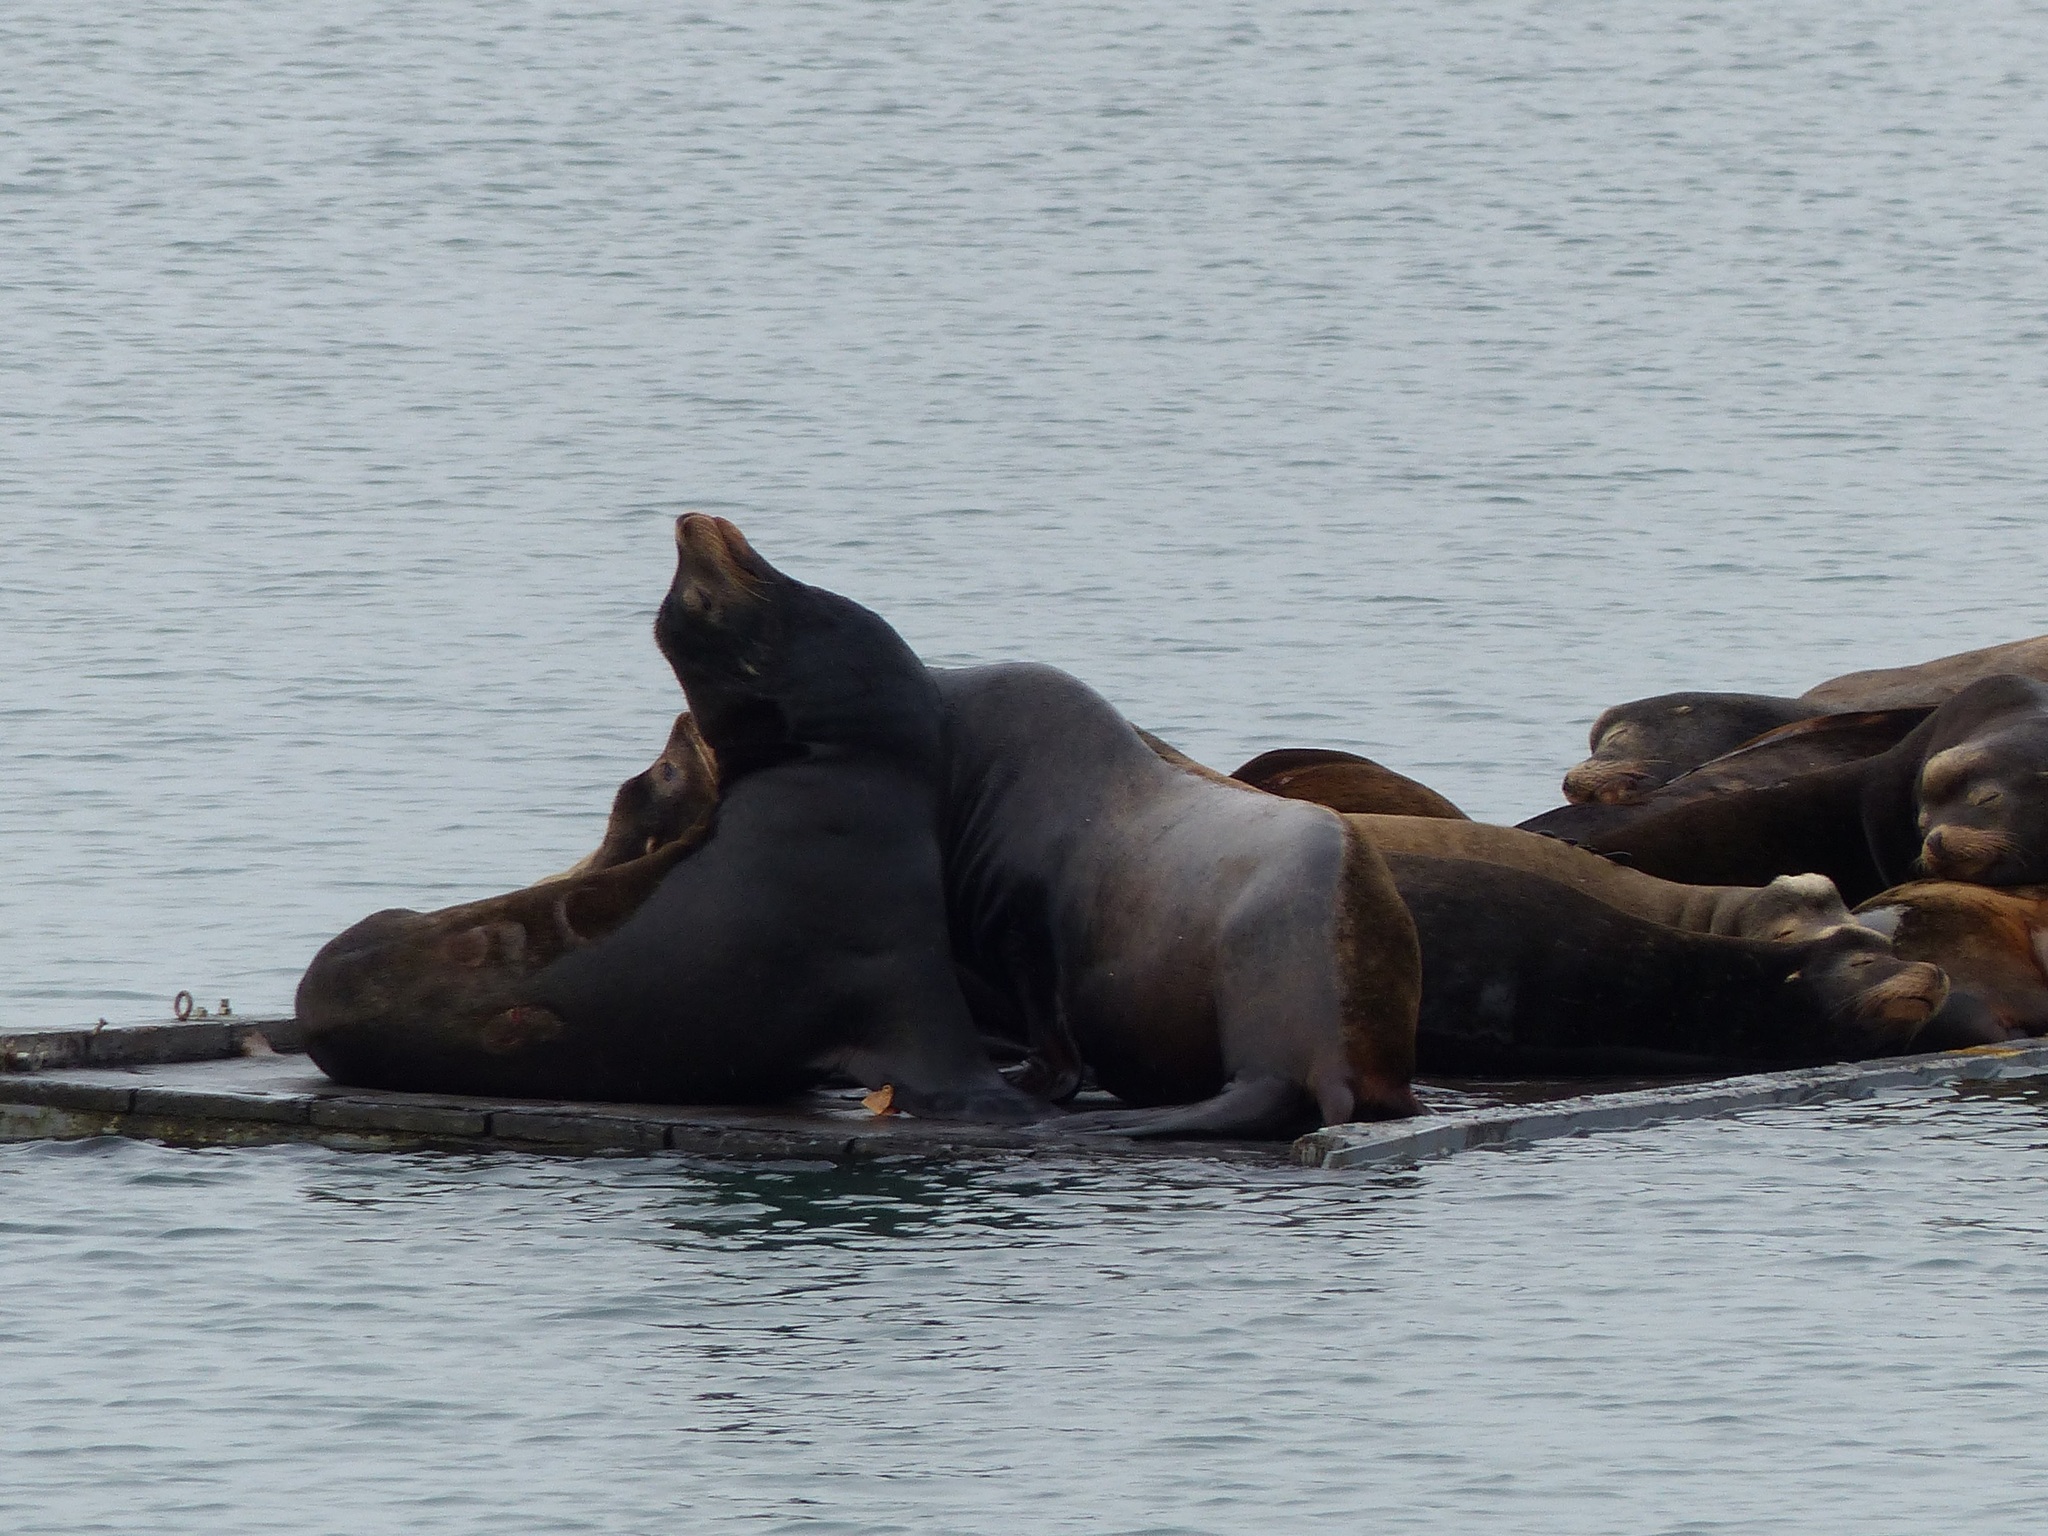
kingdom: Animalia
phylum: Chordata
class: Mammalia
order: Carnivora
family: Otariidae
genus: Zalophus
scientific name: Zalophus californianus
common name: California sea lion
